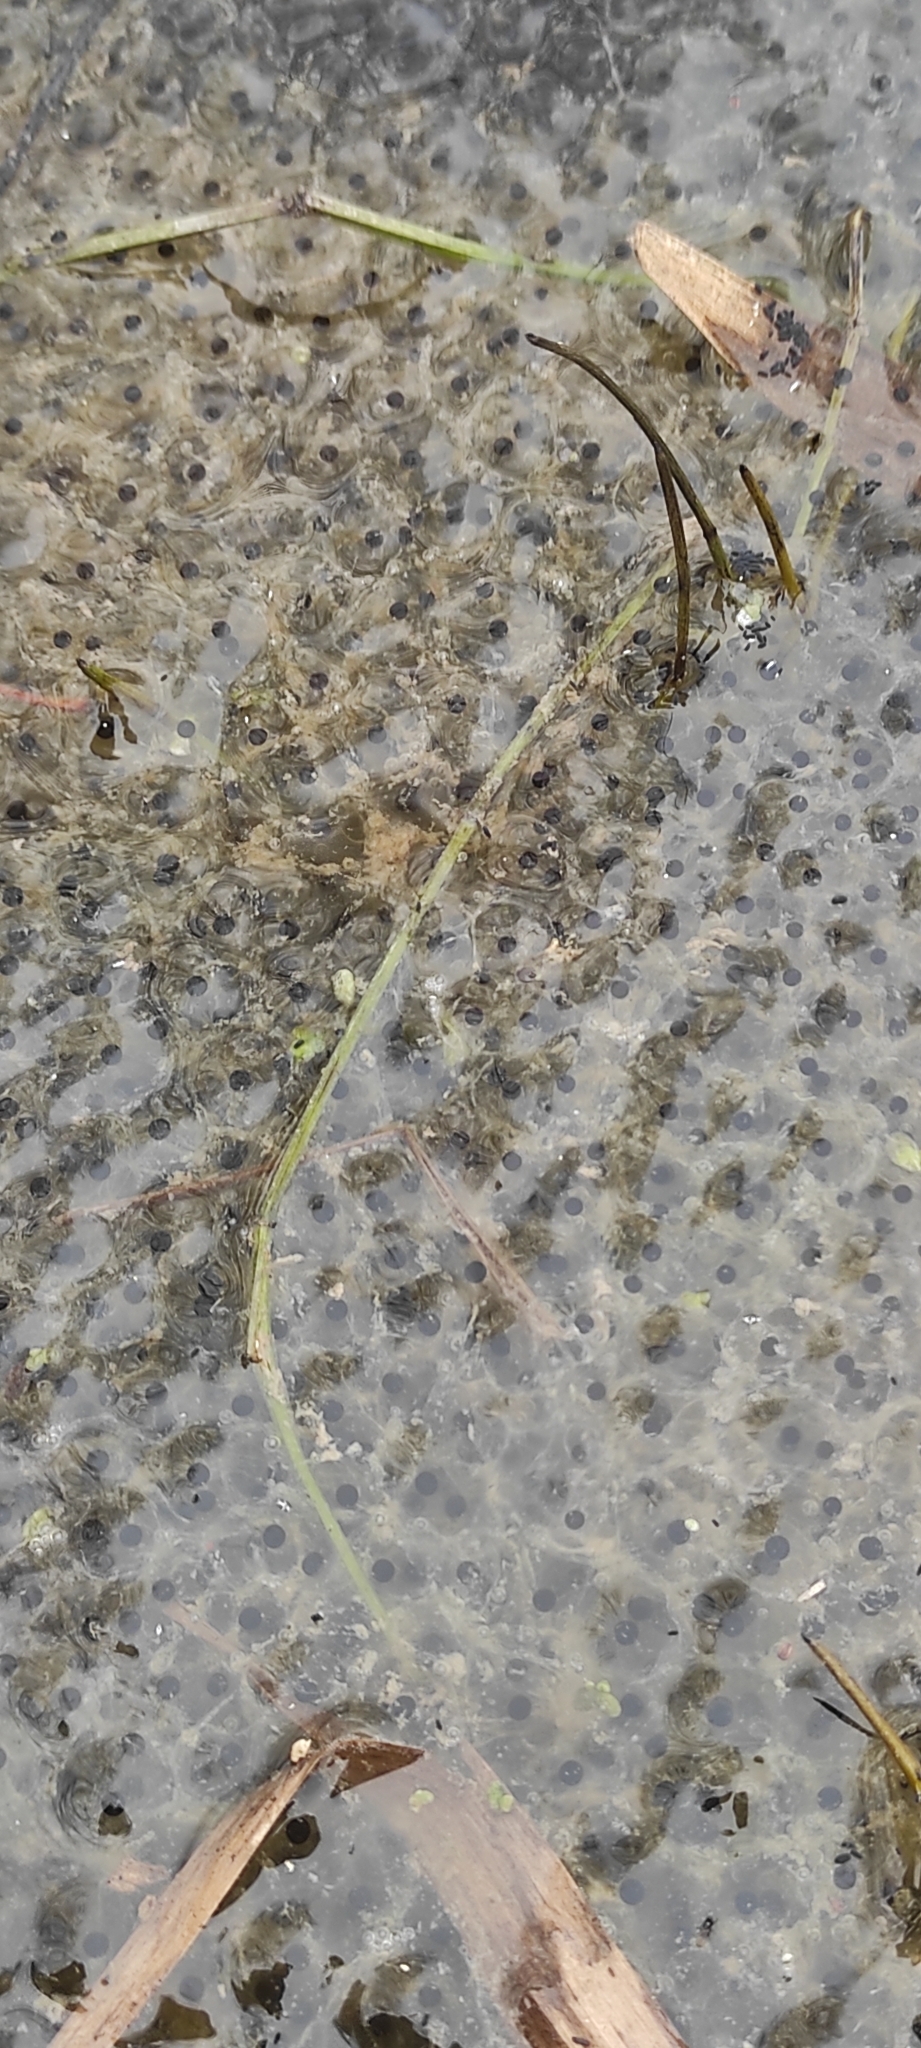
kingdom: Animalia
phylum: Chordata
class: Amphibia
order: Anura
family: Ranidae
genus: Rana
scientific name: Rana temporaria
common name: Common frog
